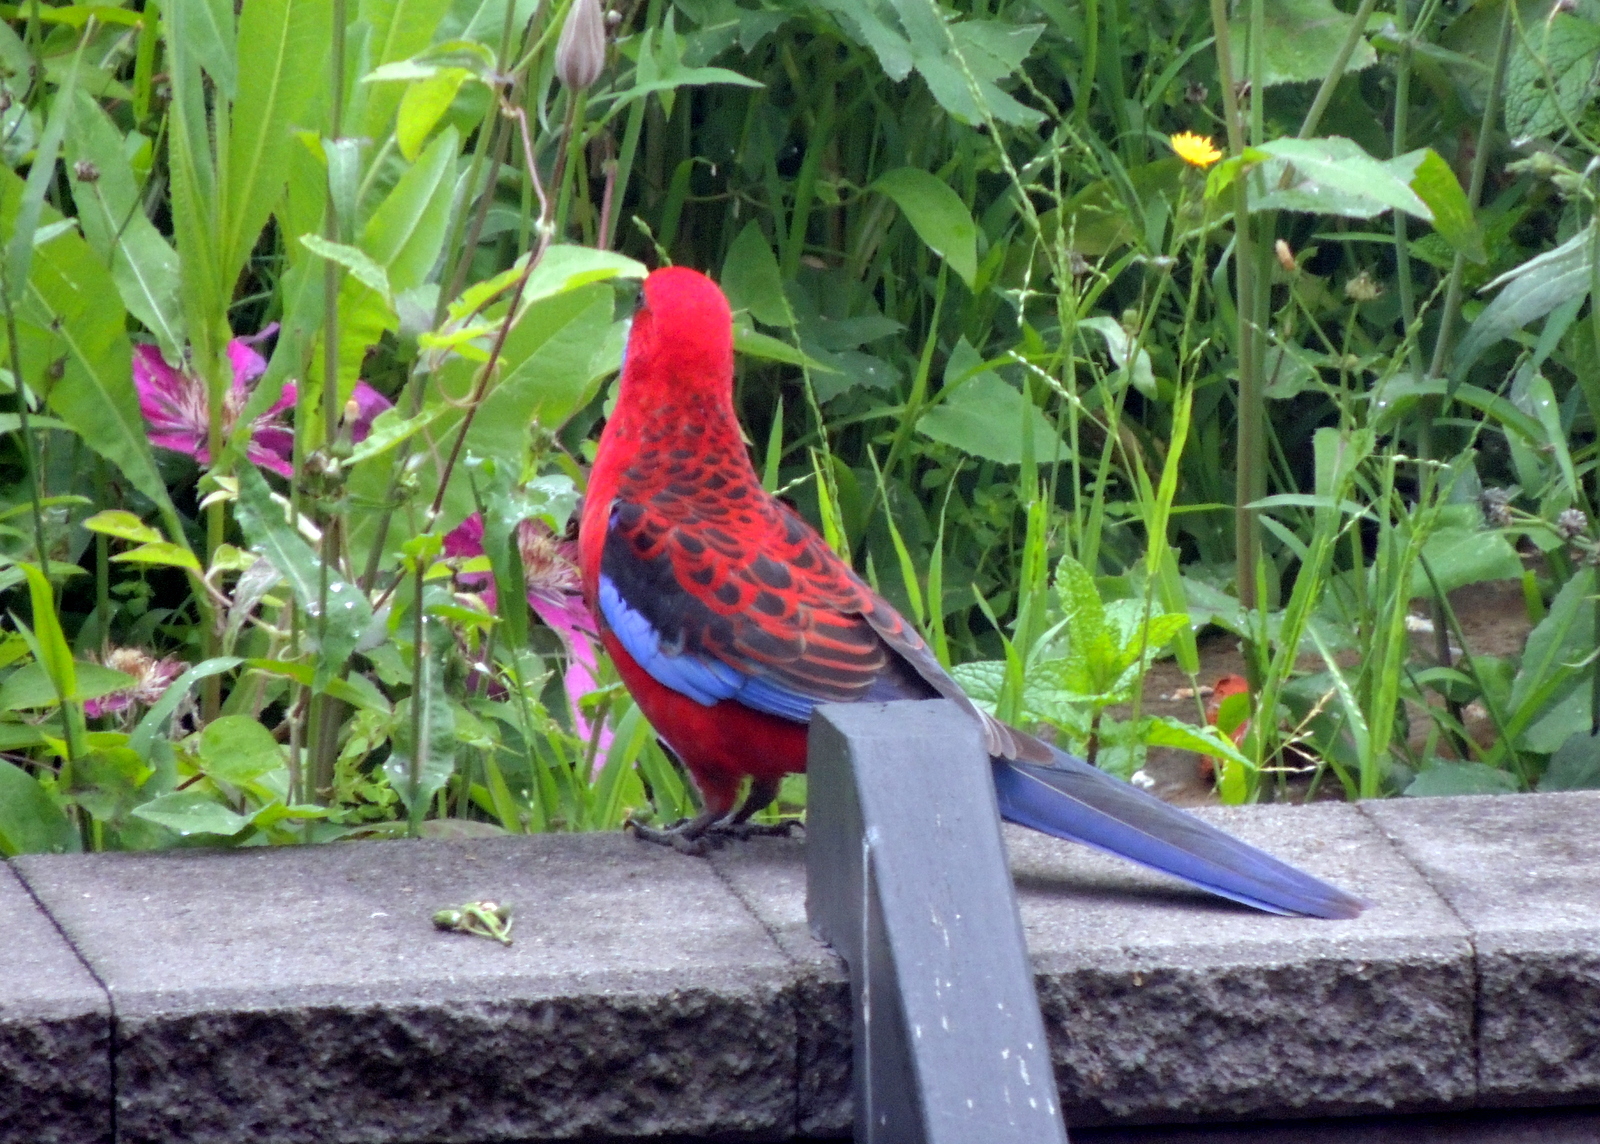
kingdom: Animalia
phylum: Chordata
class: Aves
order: Psittaciformes
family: Psittacidae
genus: Platycercus
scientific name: Platycercus elegans
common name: Crimson rosella
